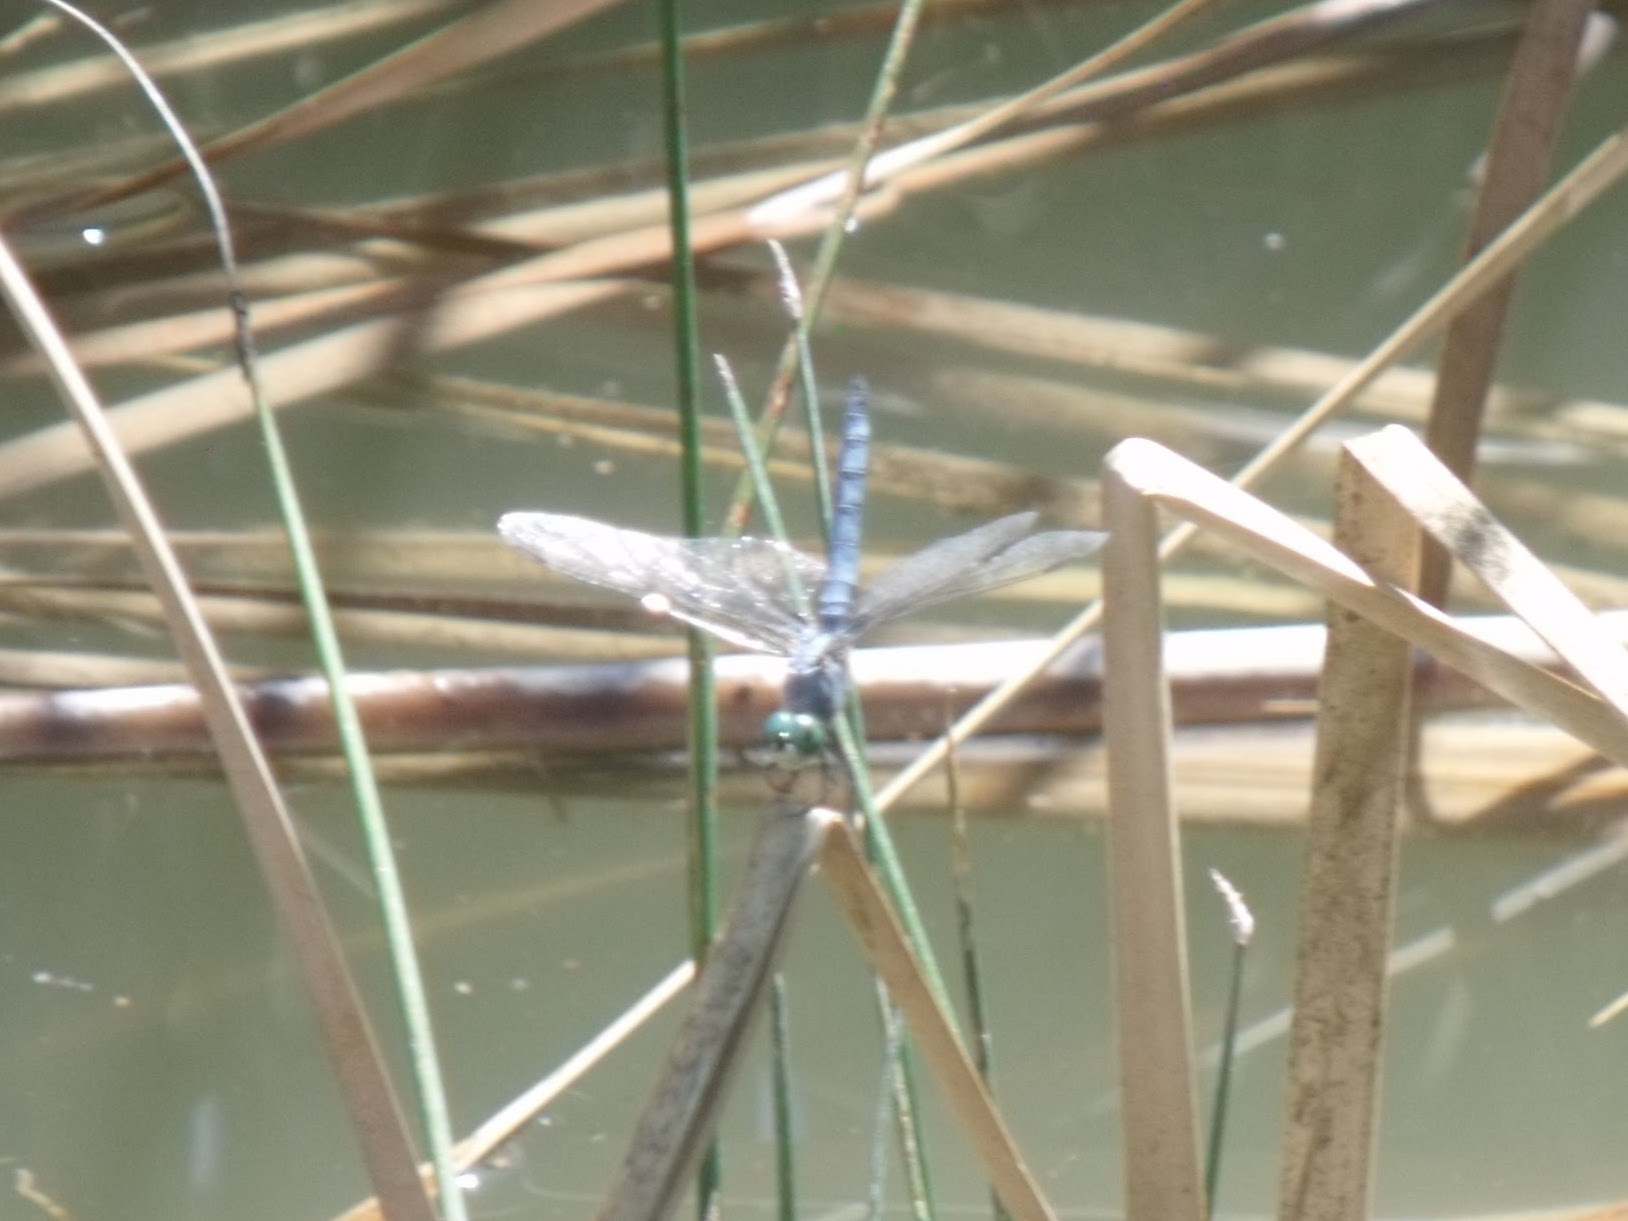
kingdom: Animalia
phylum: Arthropoda
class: Insecta
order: Odonata
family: Libellulidae
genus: Pachydiplax
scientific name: Pachydiplax longipennis
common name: Blue dasher
